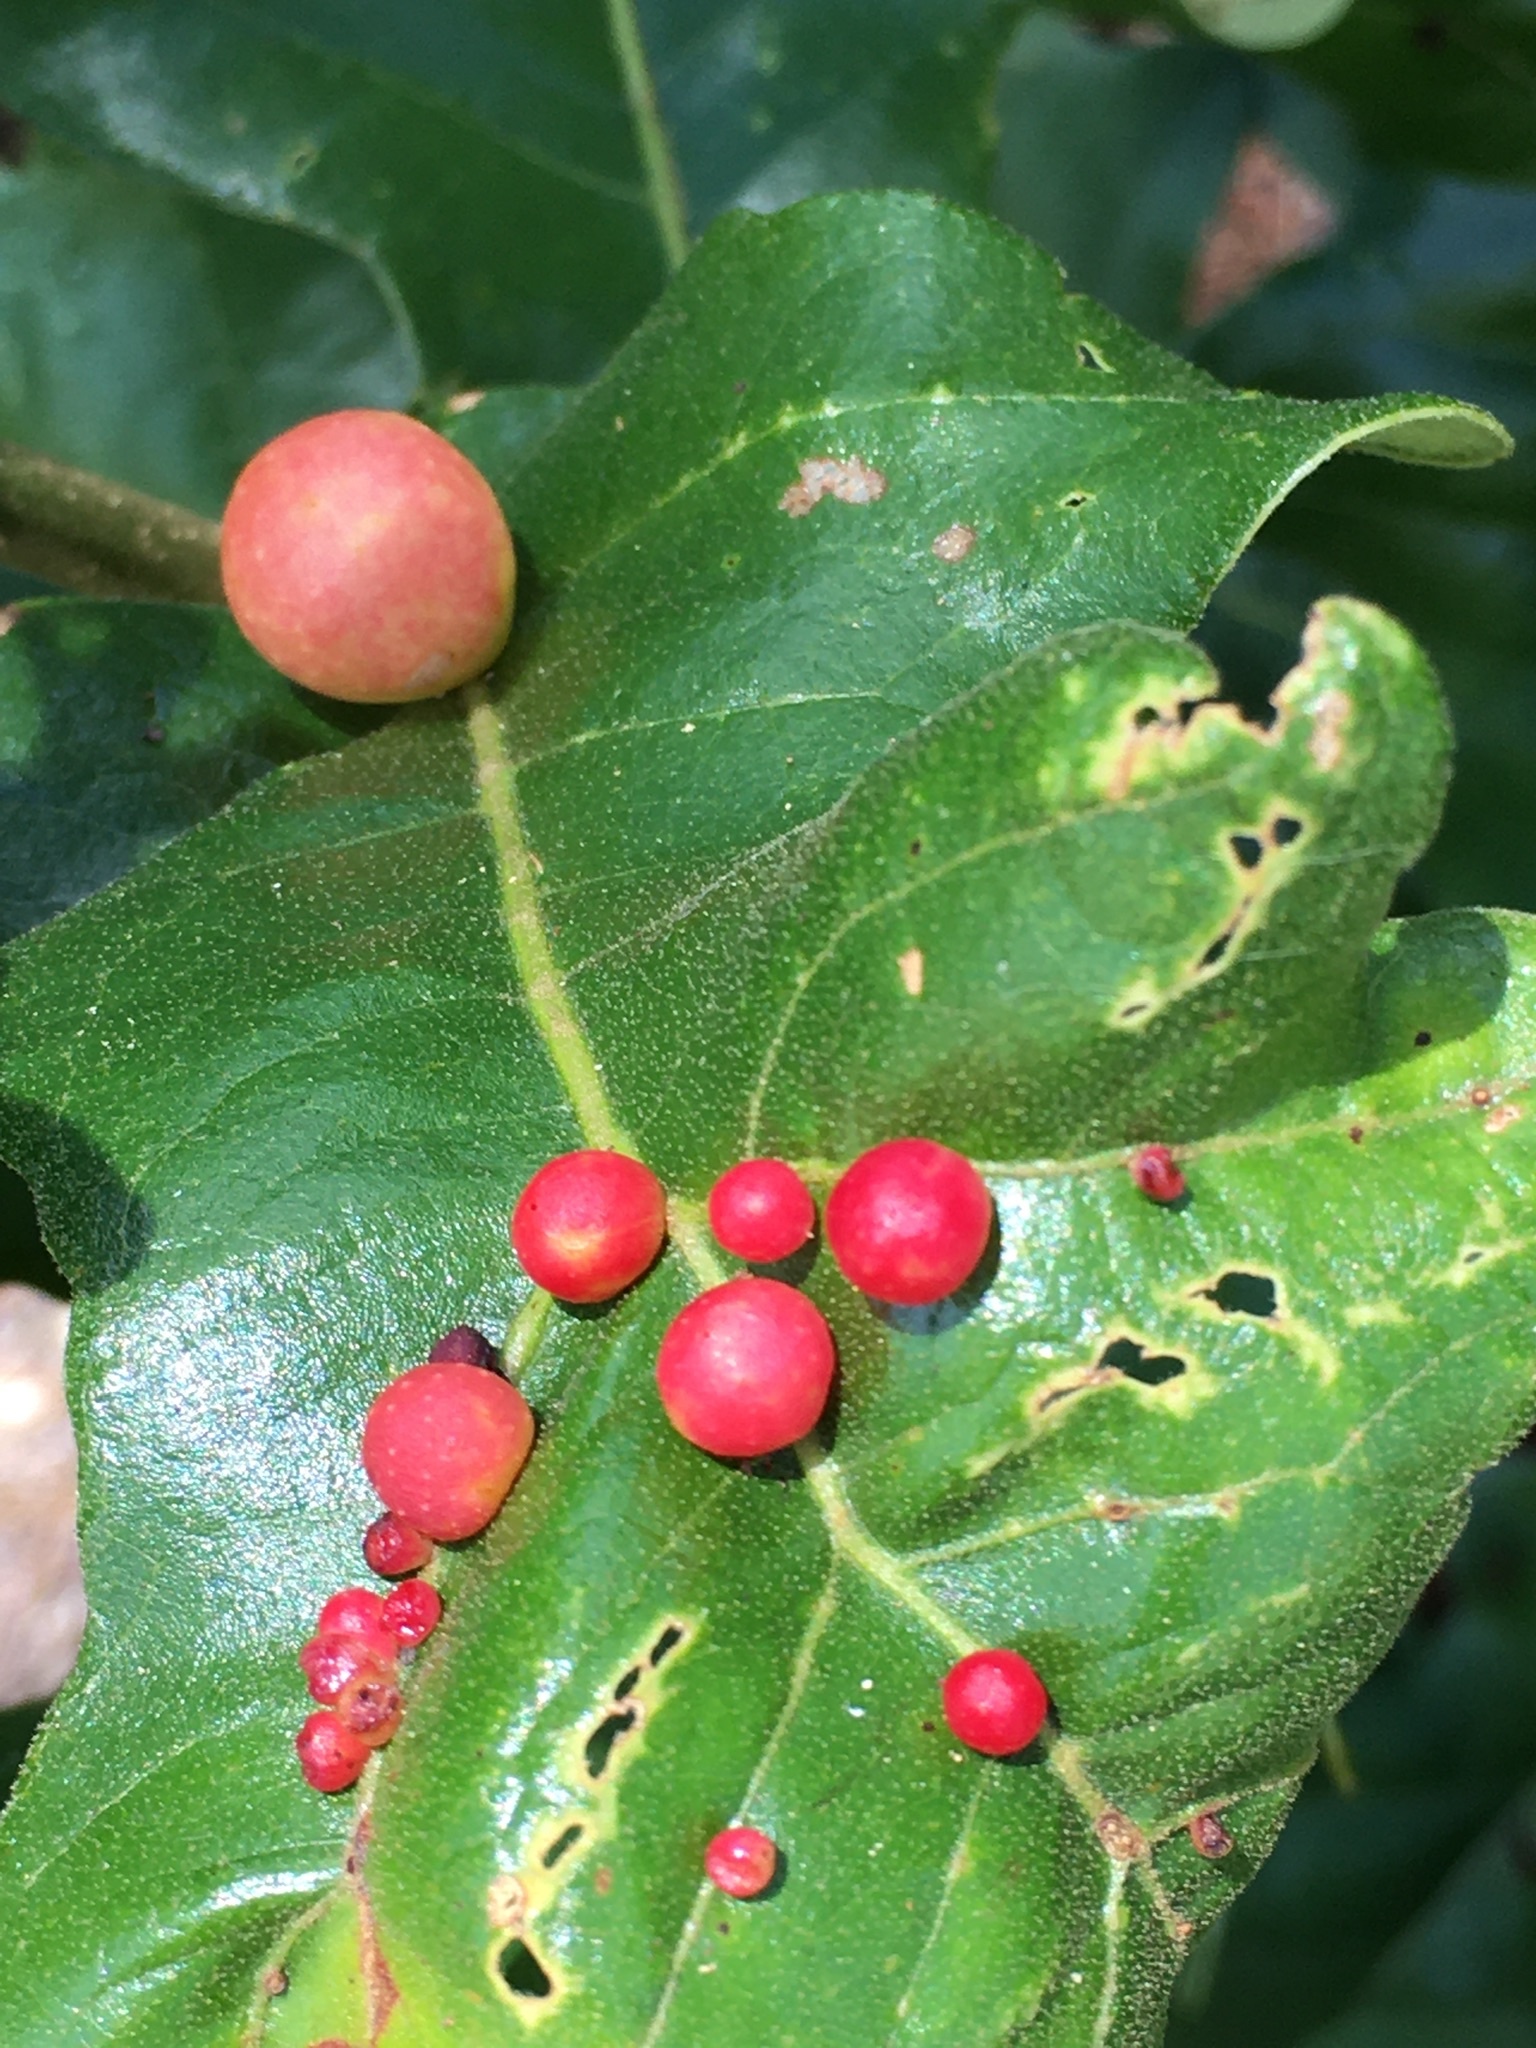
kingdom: Animalia
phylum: Arthropoda
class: Insecta
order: Hymenoptera
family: Cynipidae
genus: Trigonaspis
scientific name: Trigonaspis
